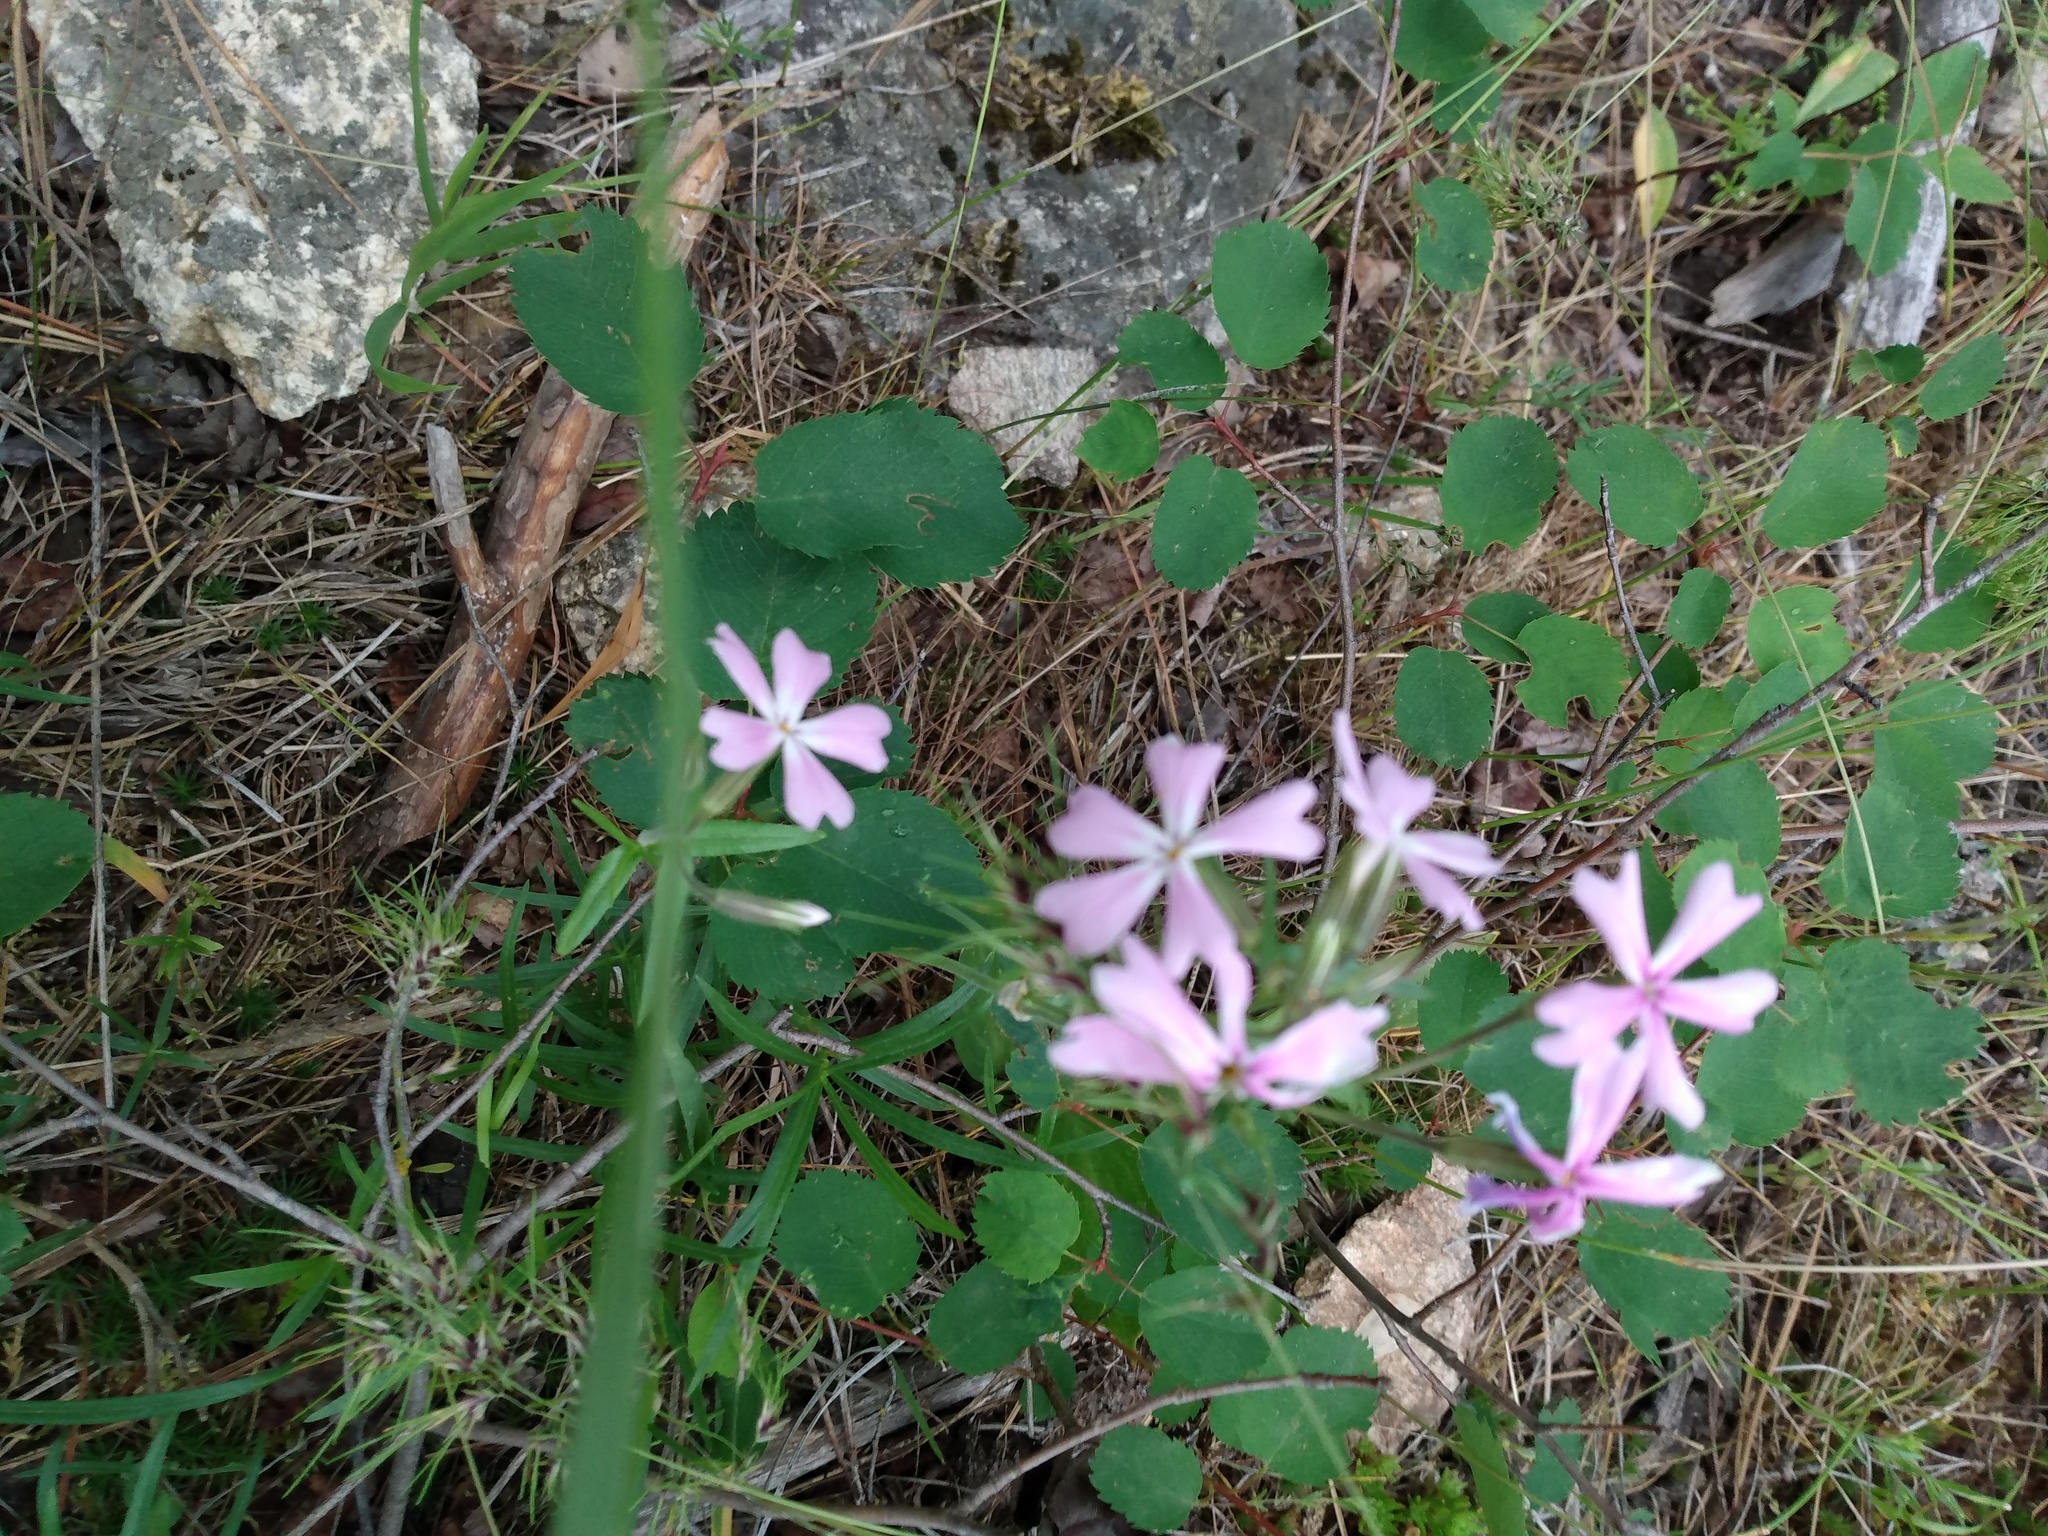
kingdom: Plantae
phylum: Tracheophyta
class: Magnoliopsida
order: Ericales
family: Polemoniaceae
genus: Phlox
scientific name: Phlox speciosa
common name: Bush phlox
